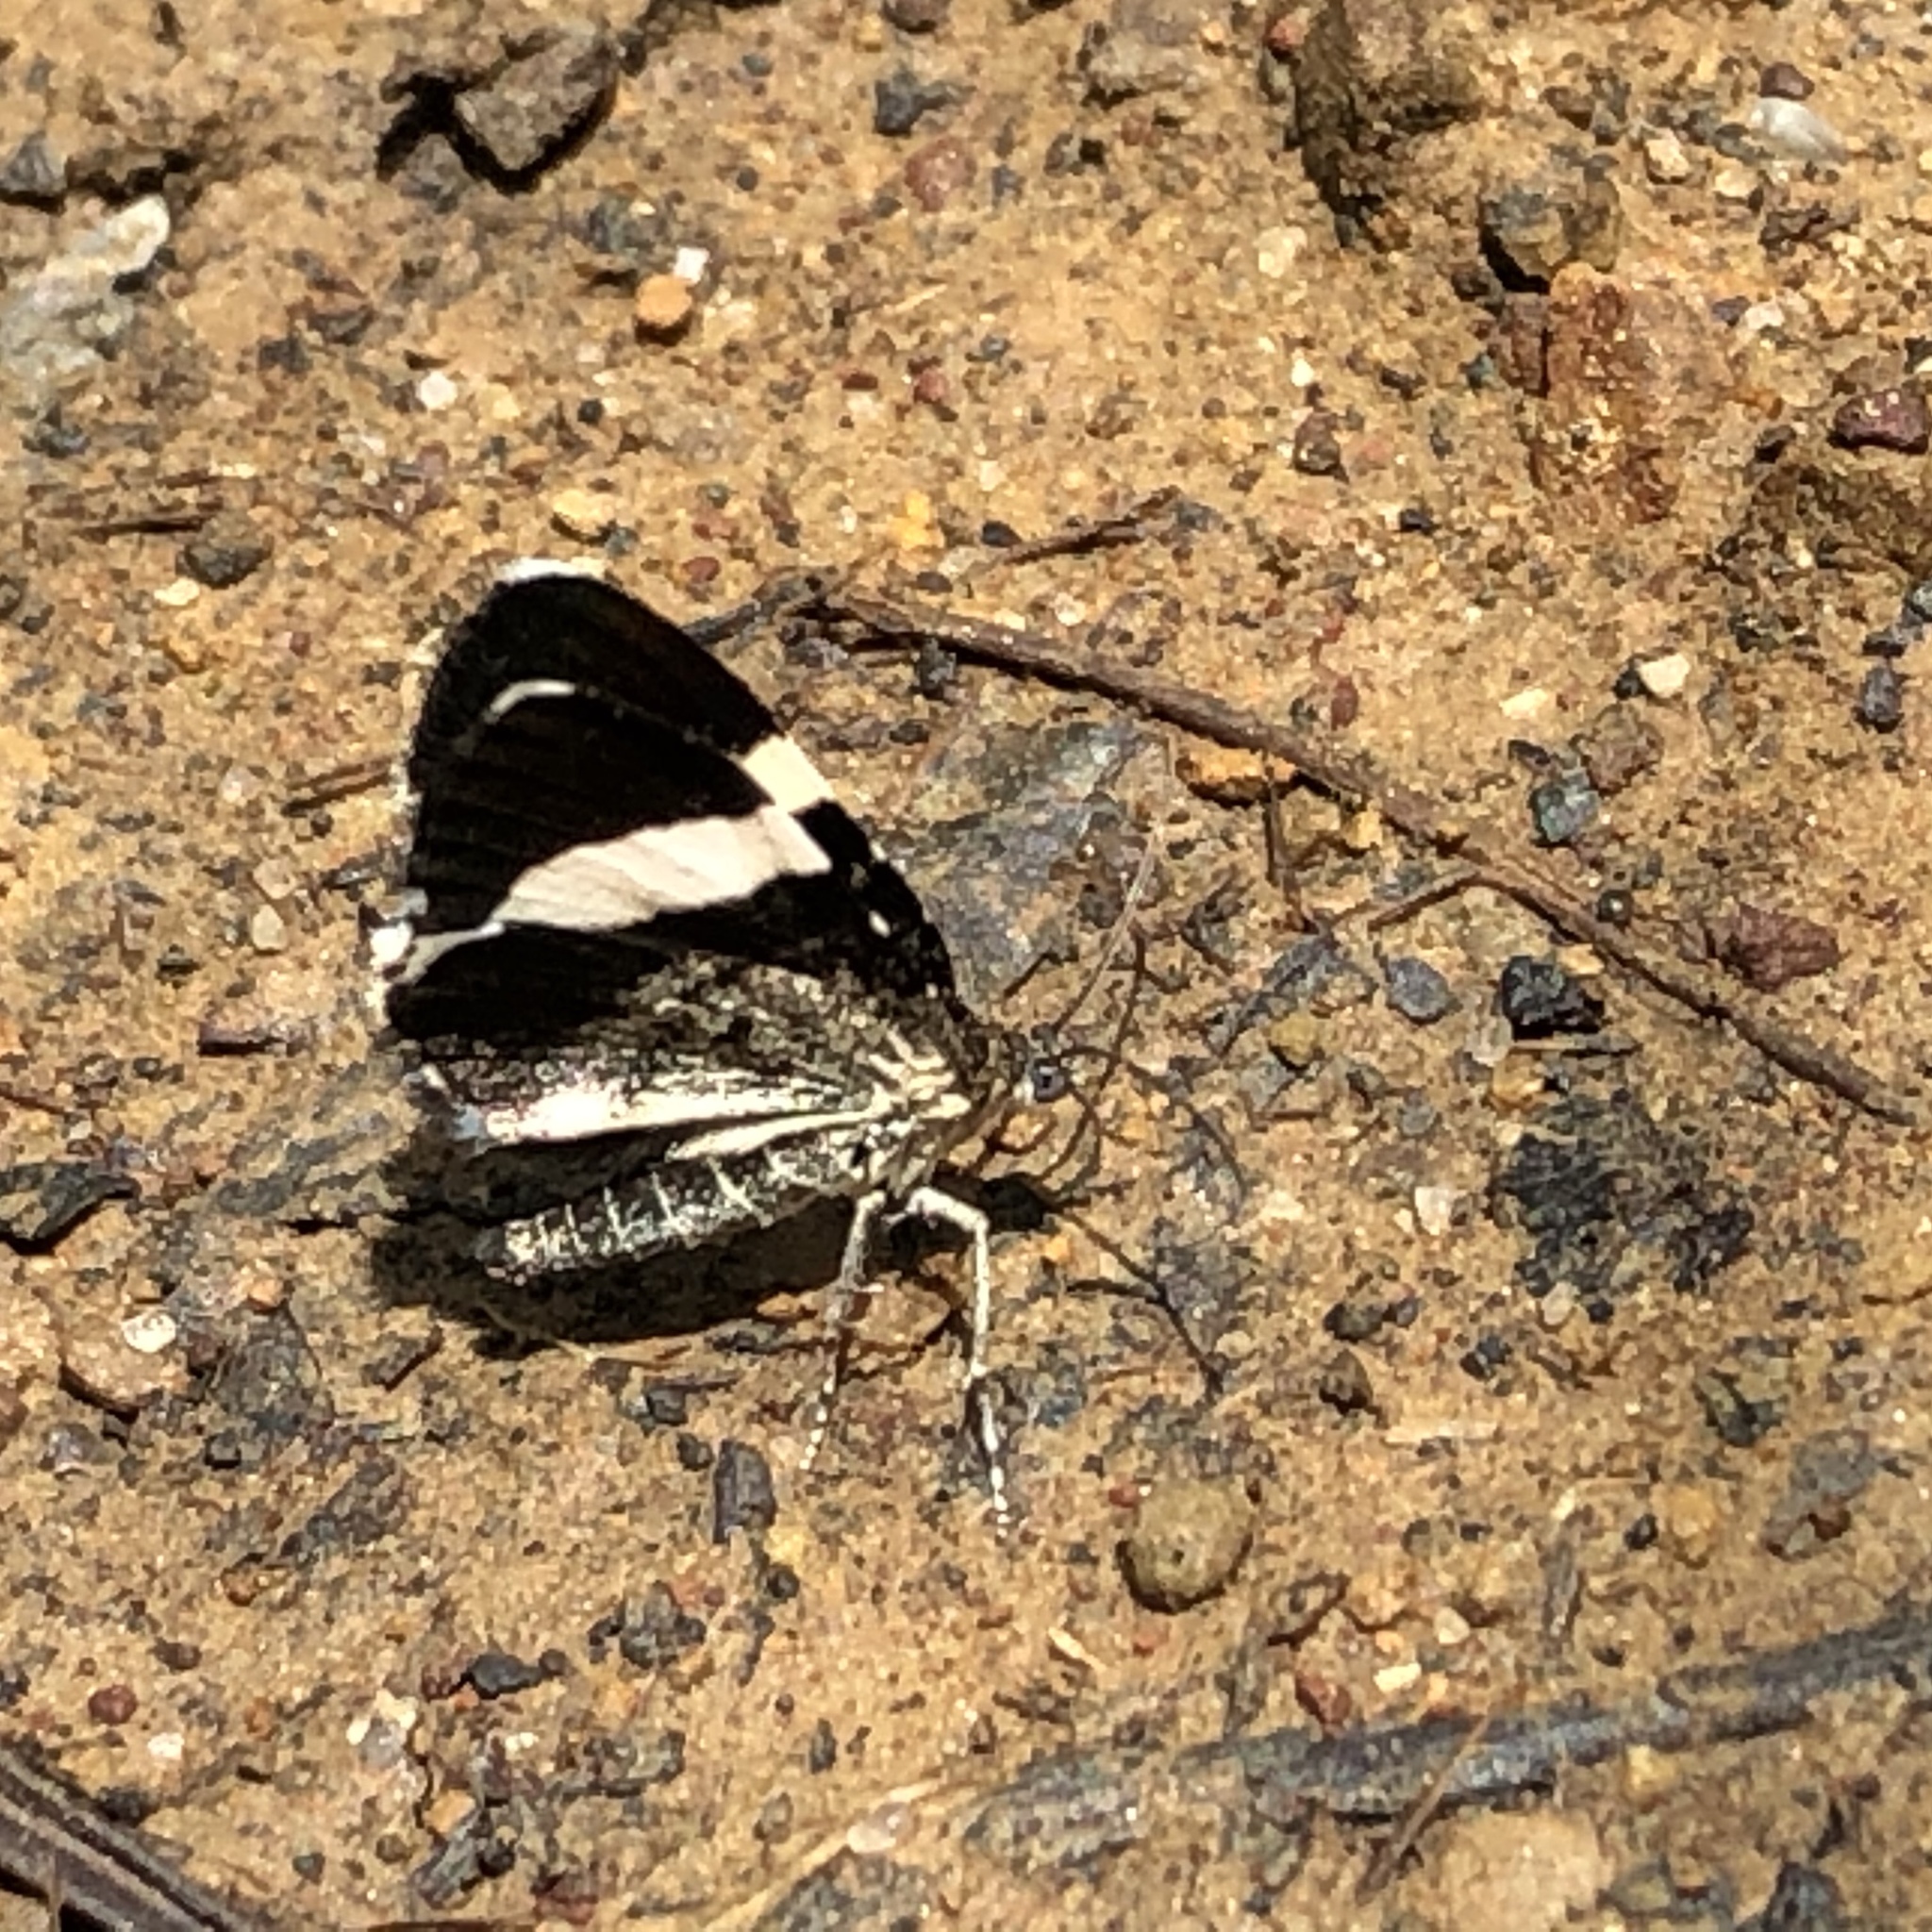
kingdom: Animalia
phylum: Arthropoda
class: Insecta
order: Lepidoptera
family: Geometridae
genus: Trichodezia
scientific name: Trichodezia albovittata
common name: White striped black
